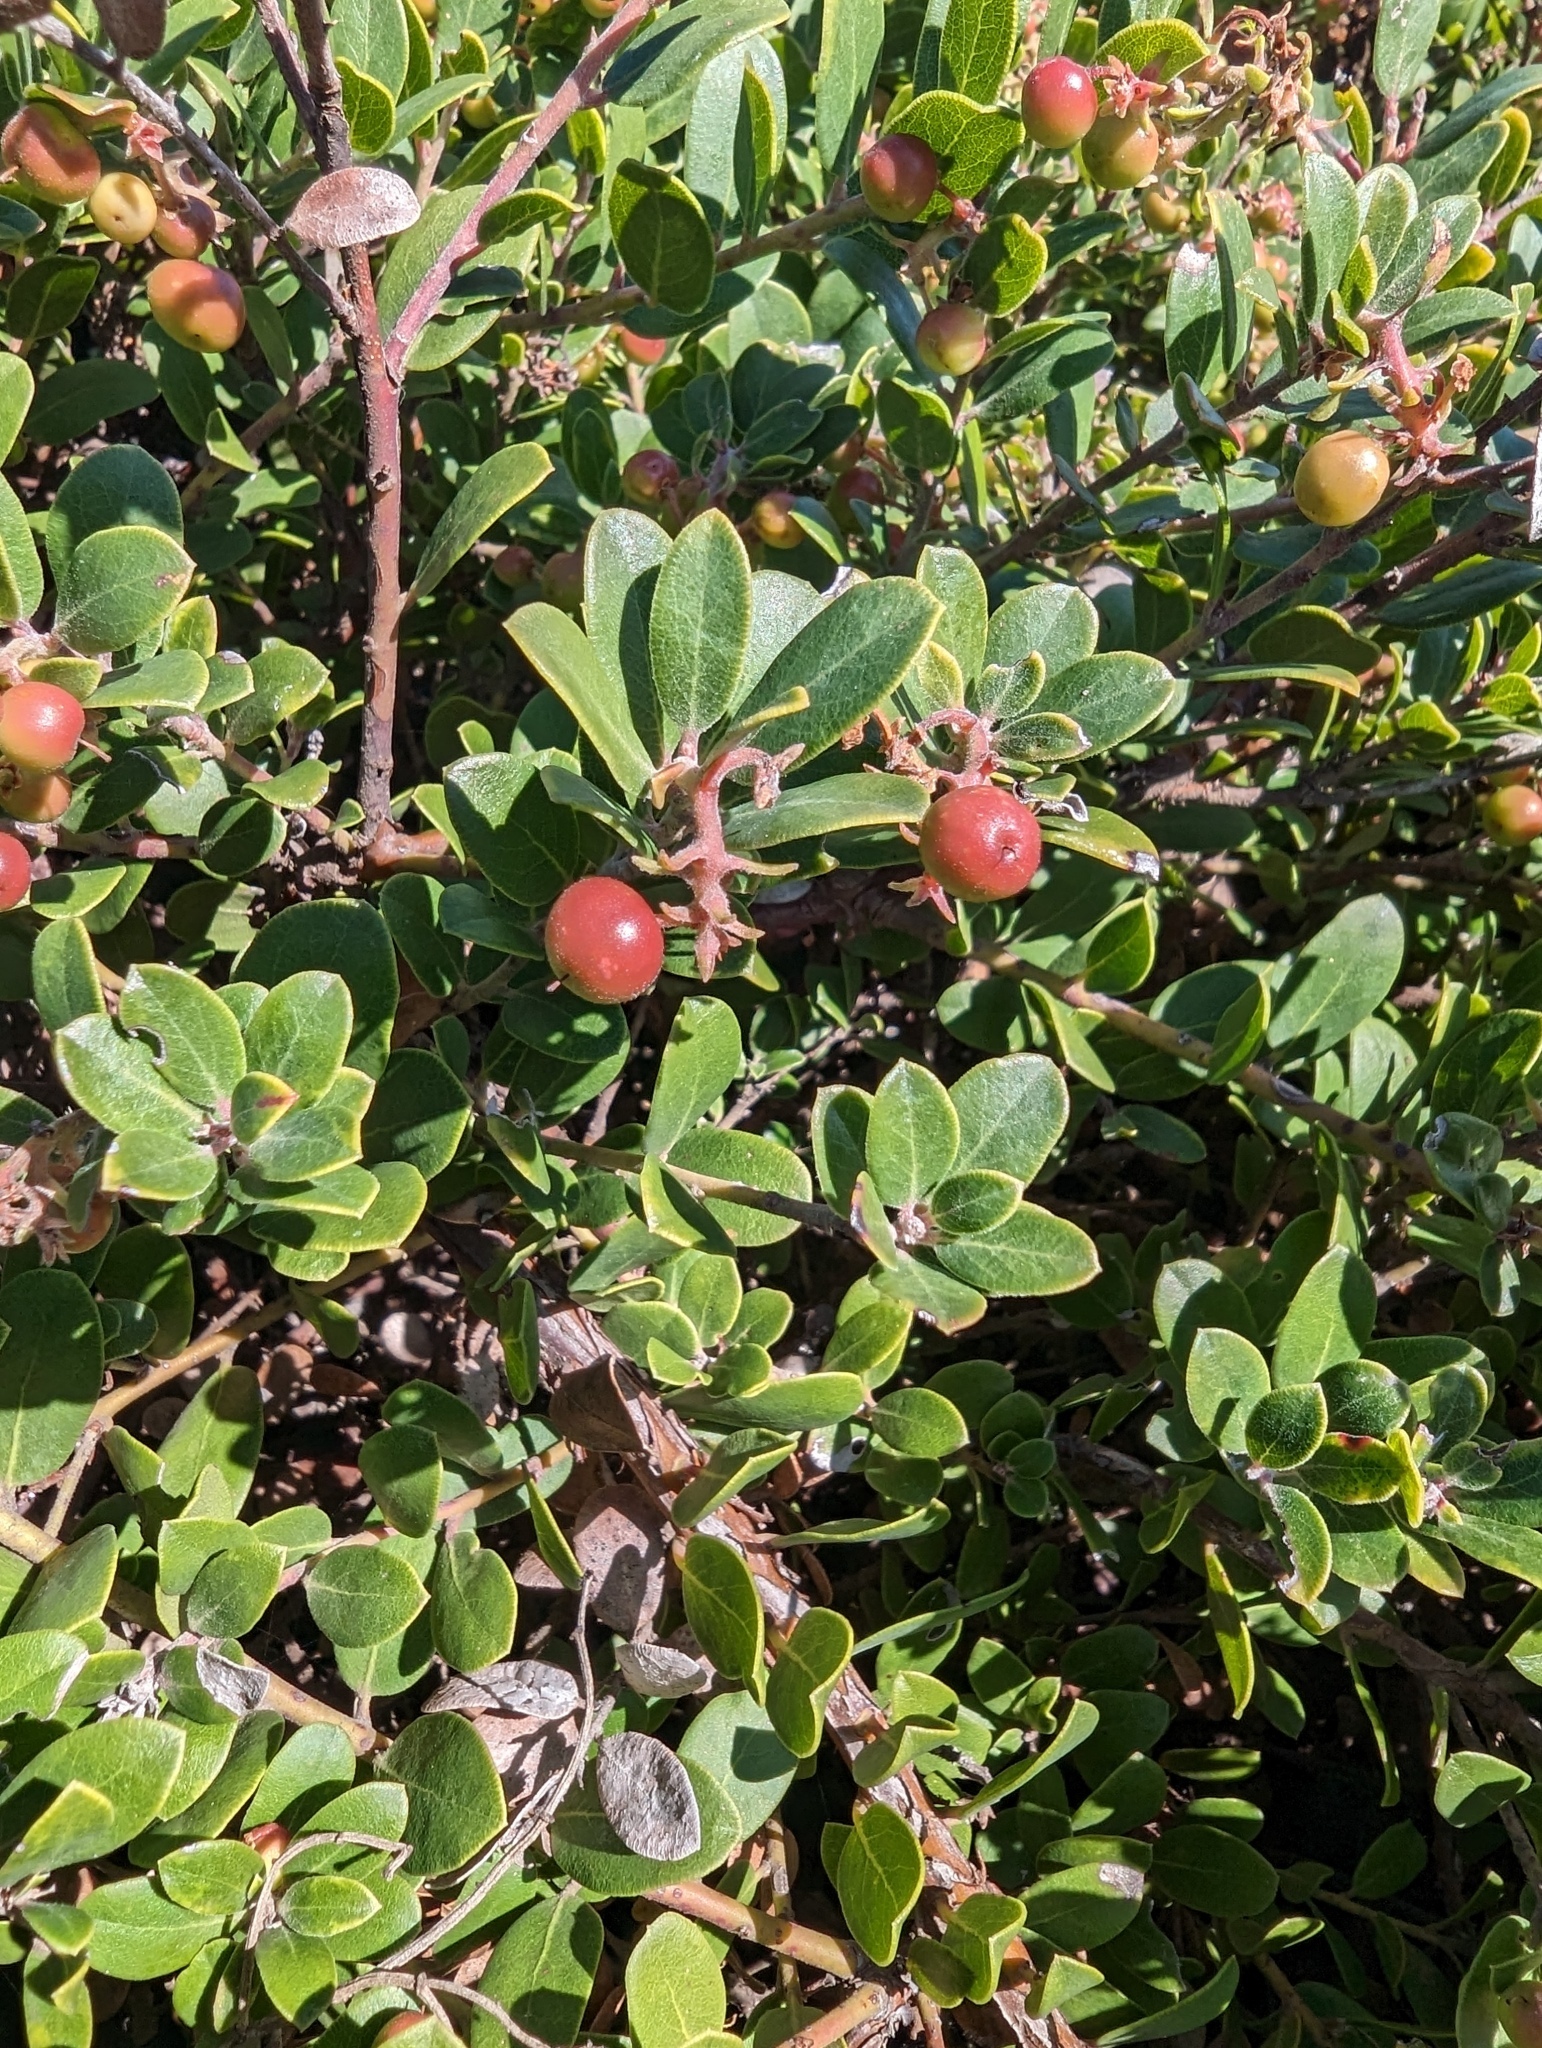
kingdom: Plantae
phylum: Tracheophyta
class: Magnoliopsida
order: Ericales
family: Ericaceae
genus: Arctostaphylos
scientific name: Arctostaphylos edmundsii
